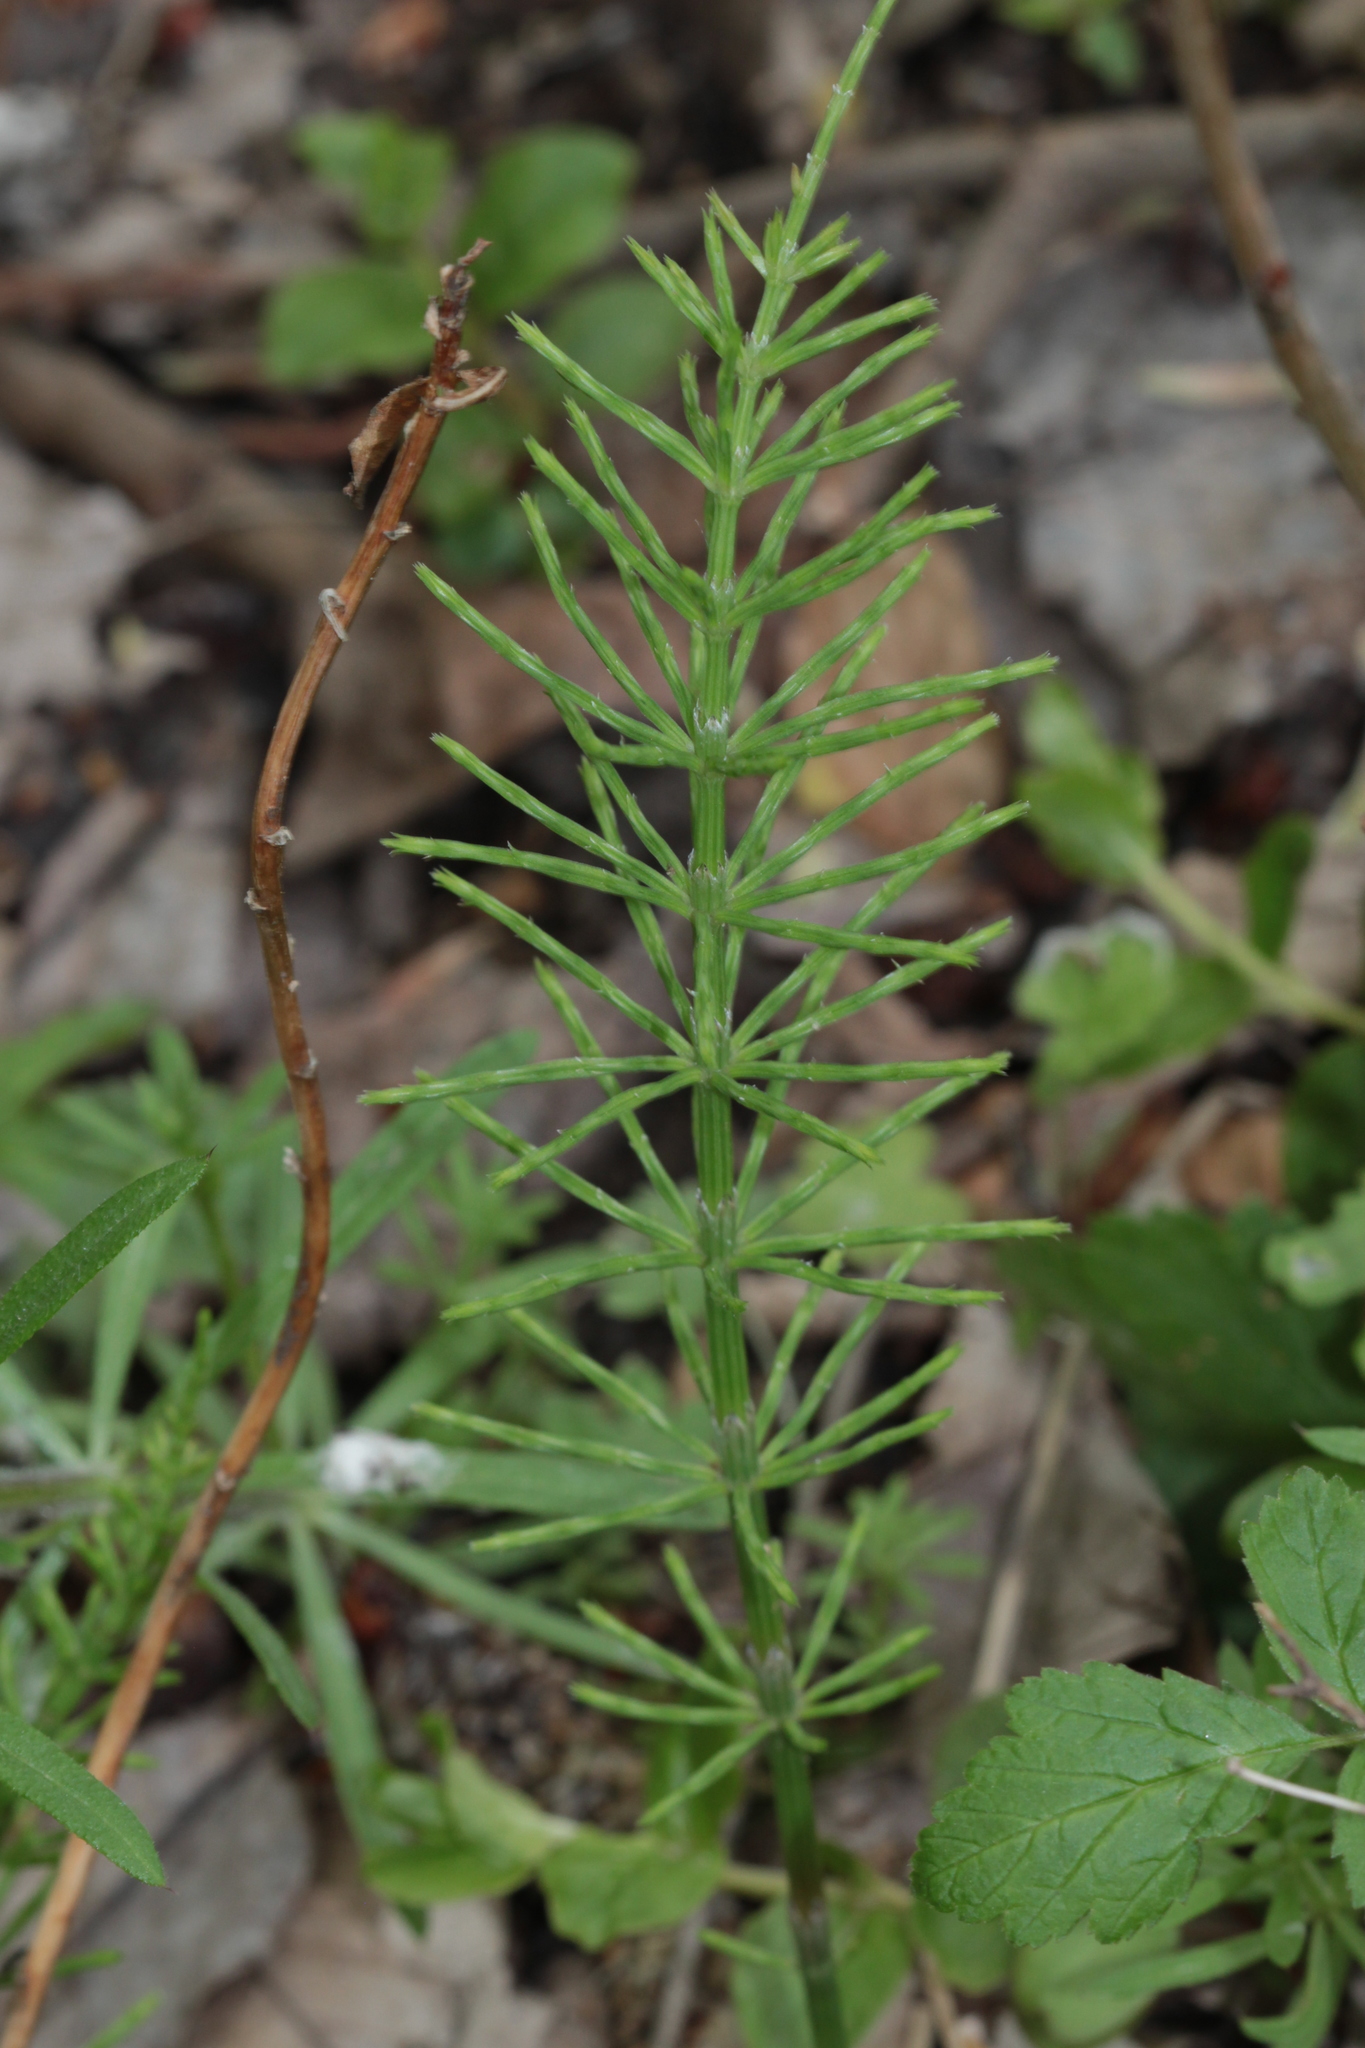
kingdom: Plantae
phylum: Tracheophyta
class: Polypodiopsida
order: Equisetales
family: Equisetaceae
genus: Equisetum
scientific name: Equisetum arvense
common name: Field horsetail
